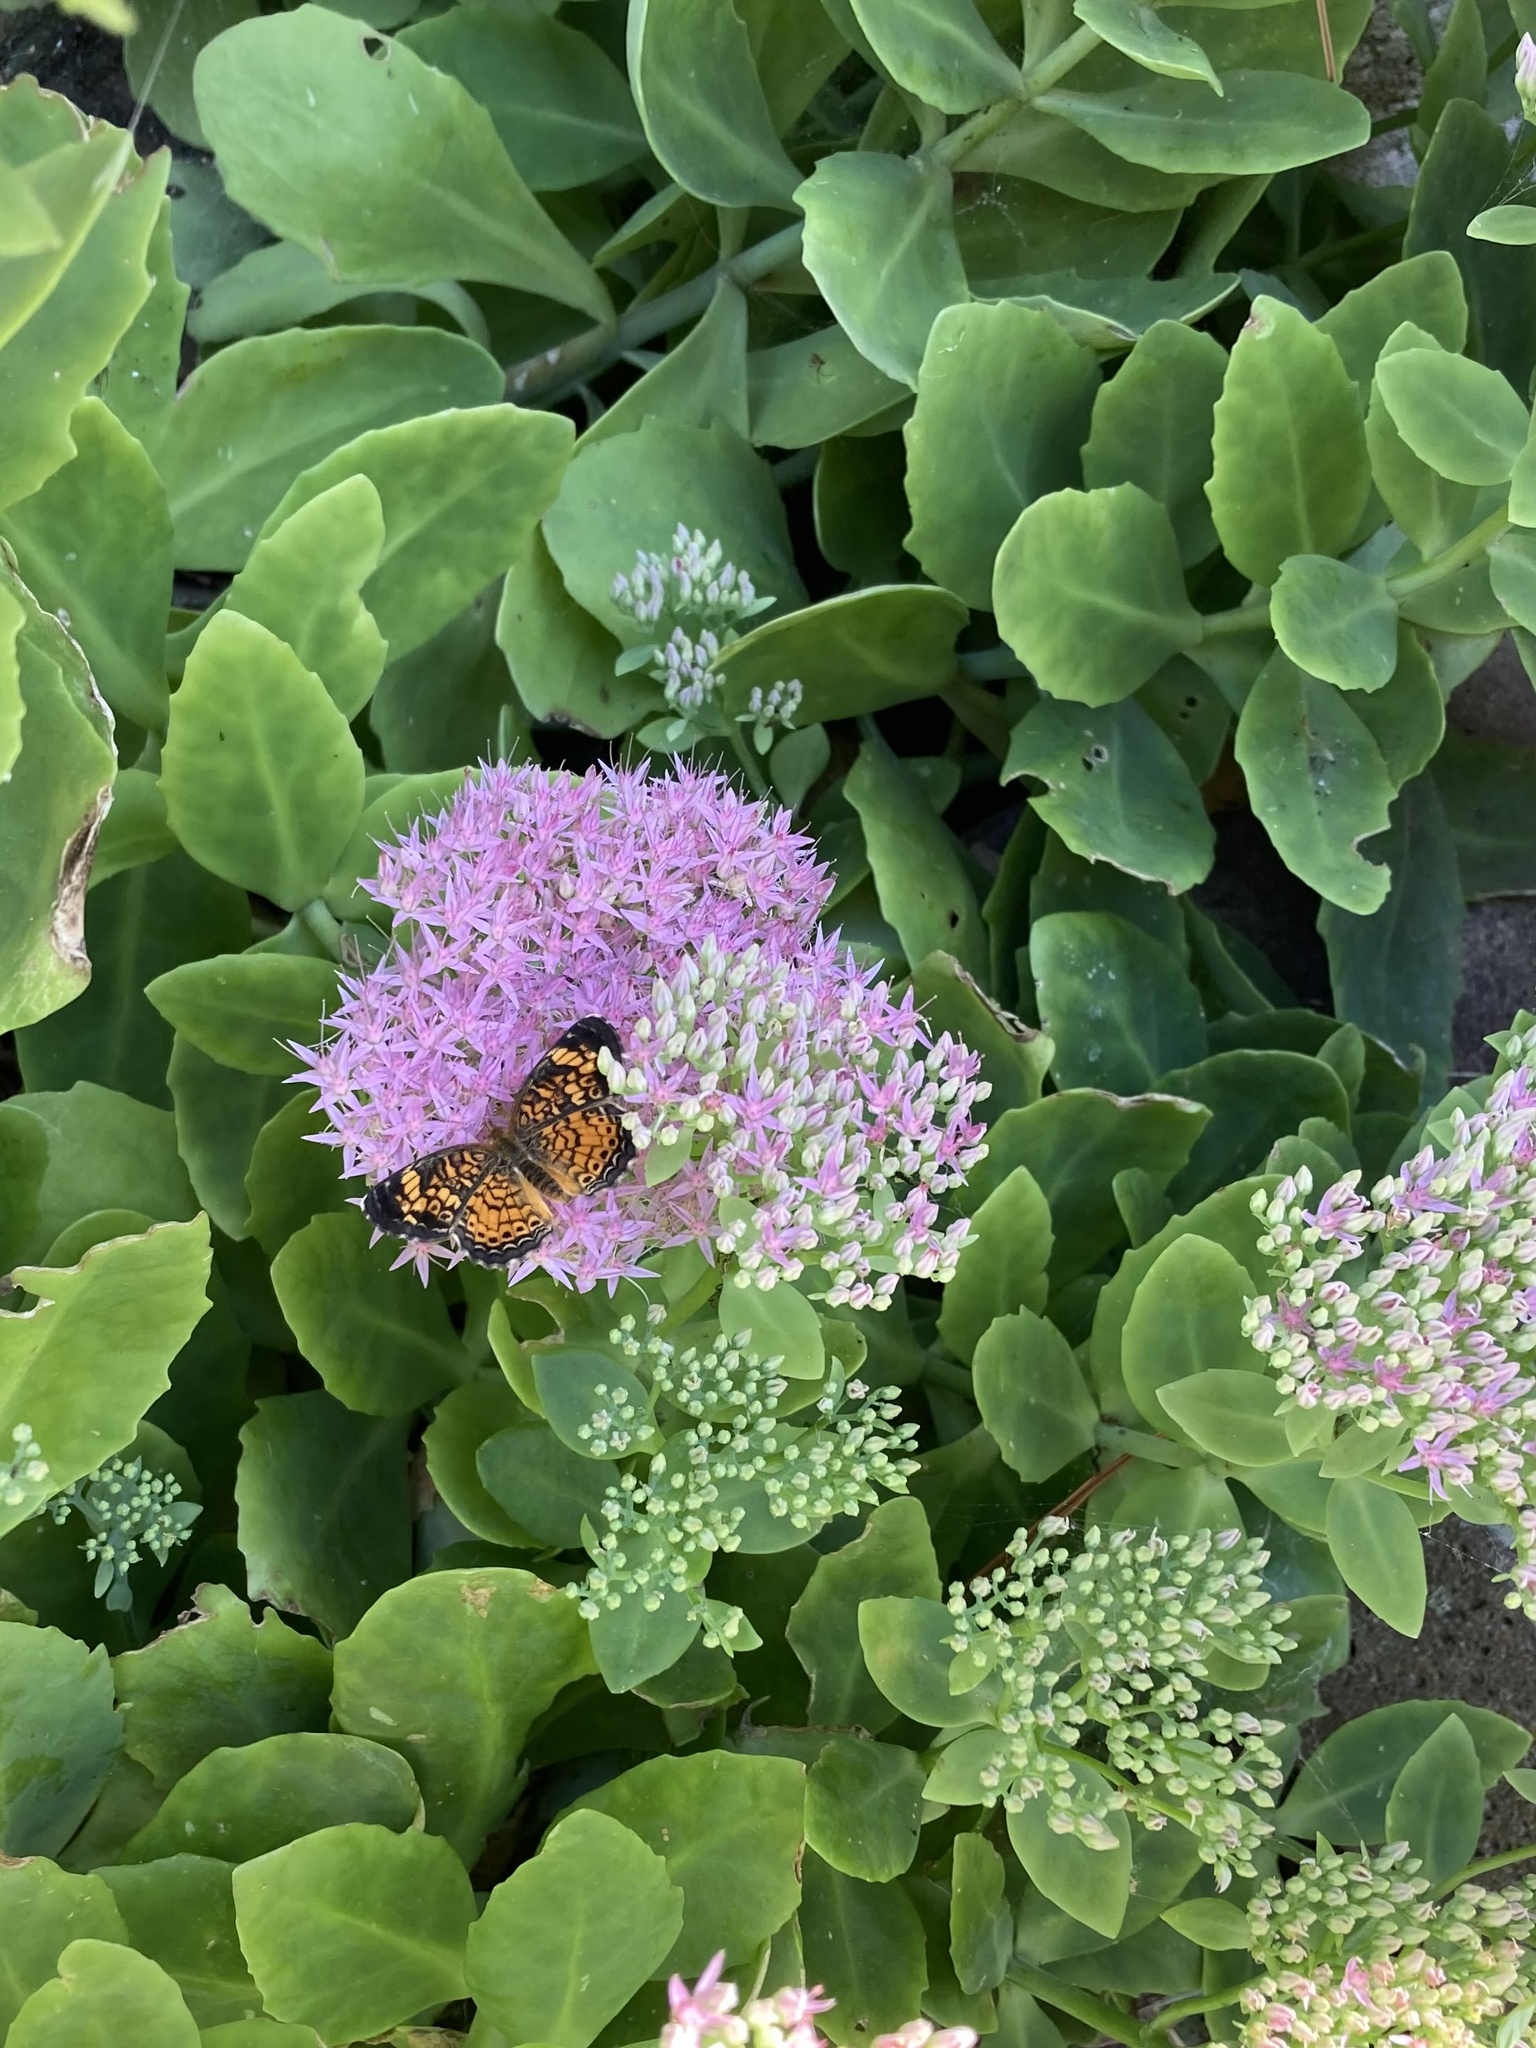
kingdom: Animalia
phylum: Arthropoda
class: Insecta
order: Lepidoptera
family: Nymphalidae
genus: Phyciodes
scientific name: Phyciodes tharos
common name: Pearl crescent
